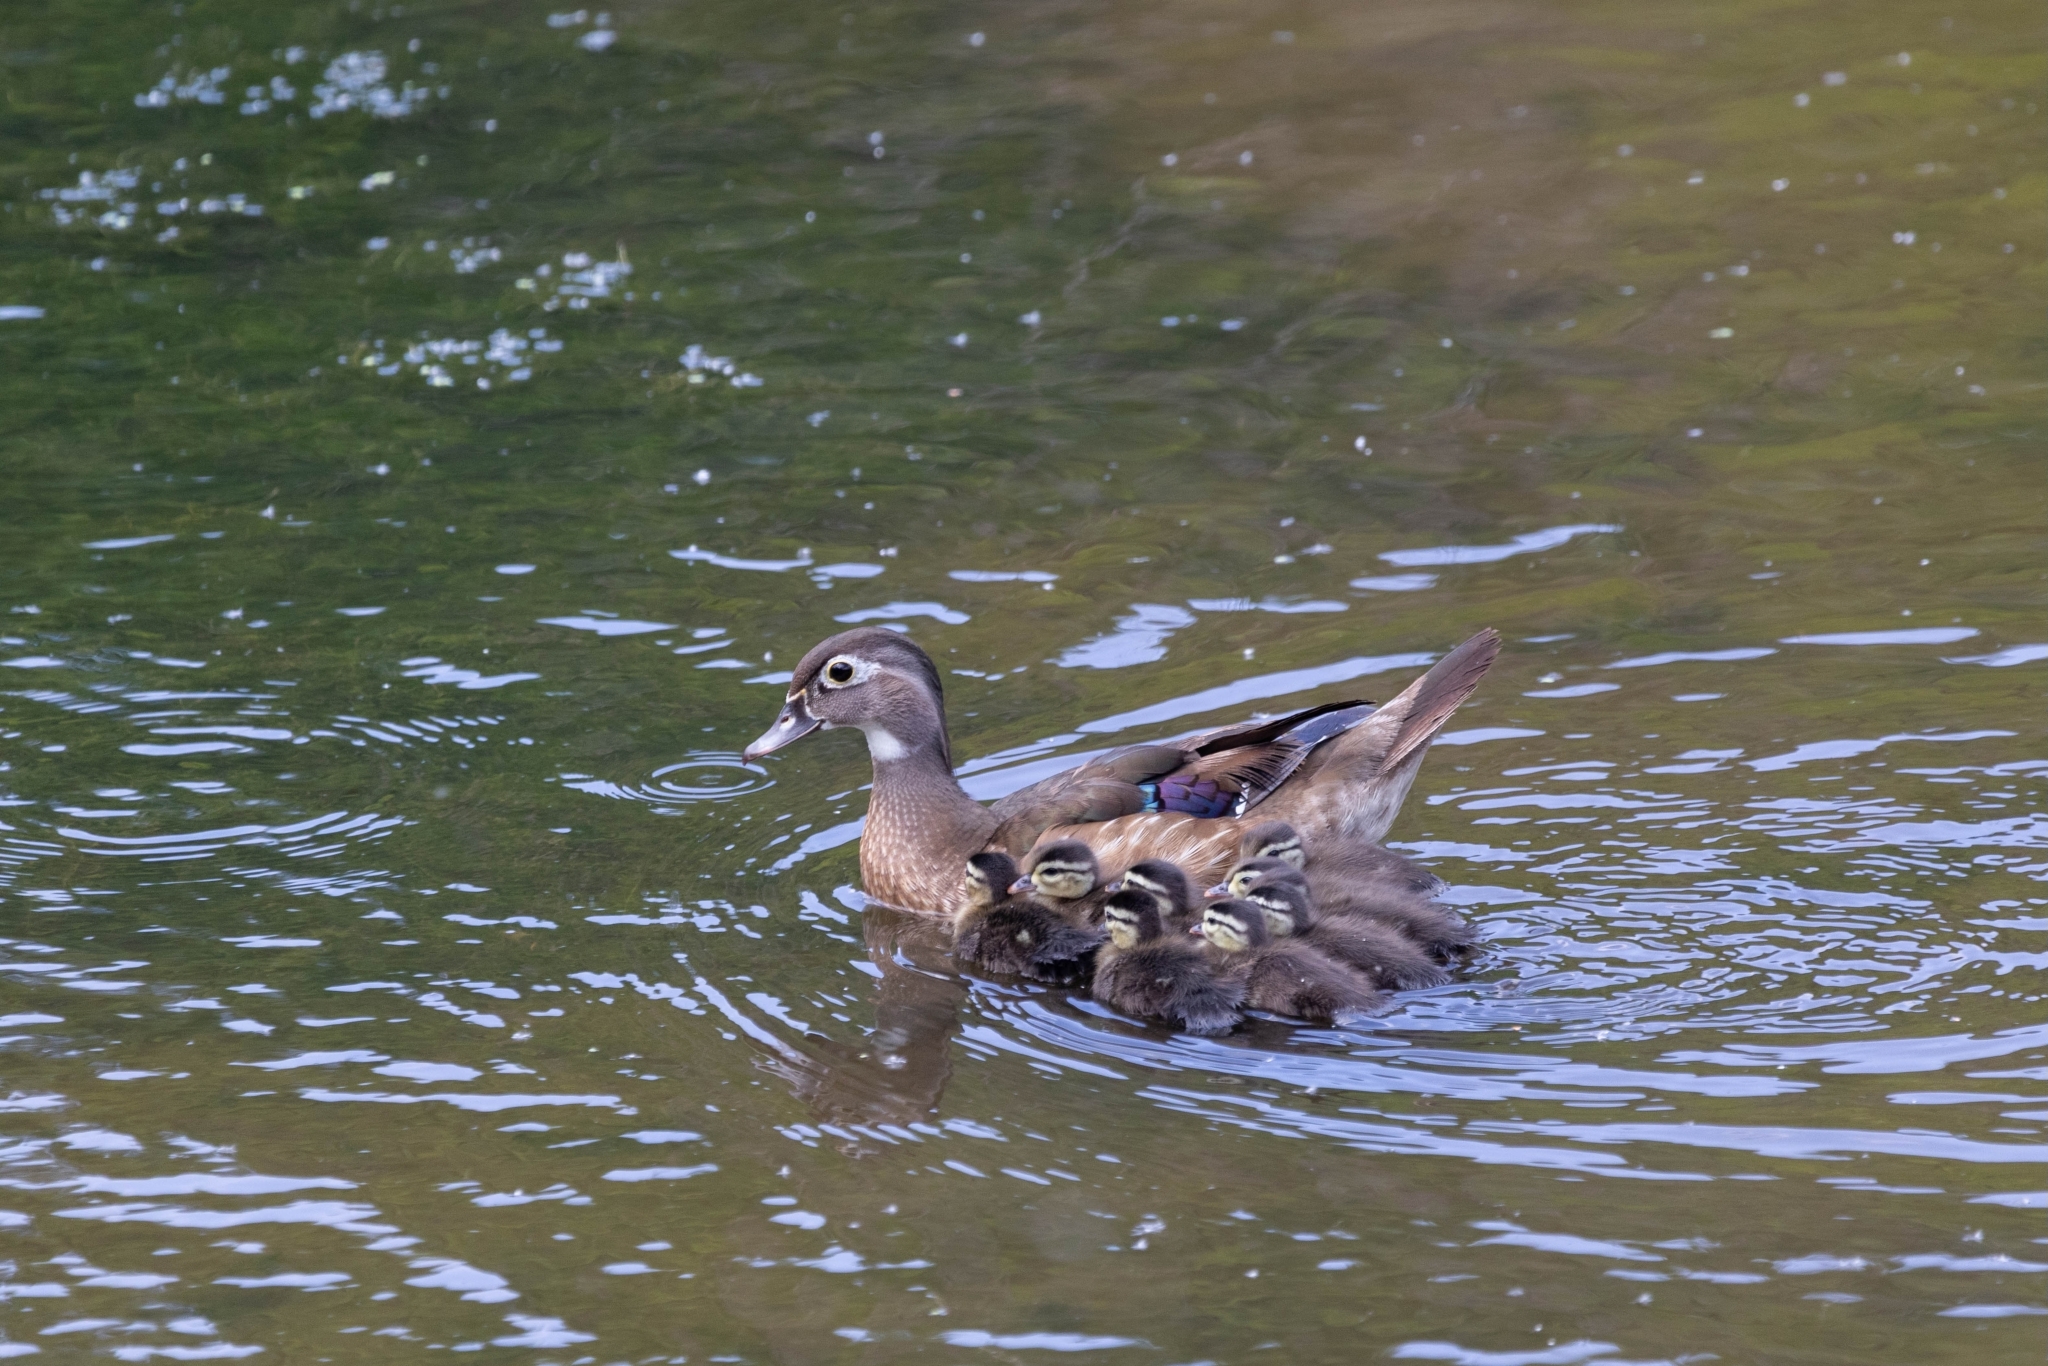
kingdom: Animalia
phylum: Chordata
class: Aves
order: Anseriformes
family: Anatidae
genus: Aix
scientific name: Aix sponsa
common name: Wood duck
